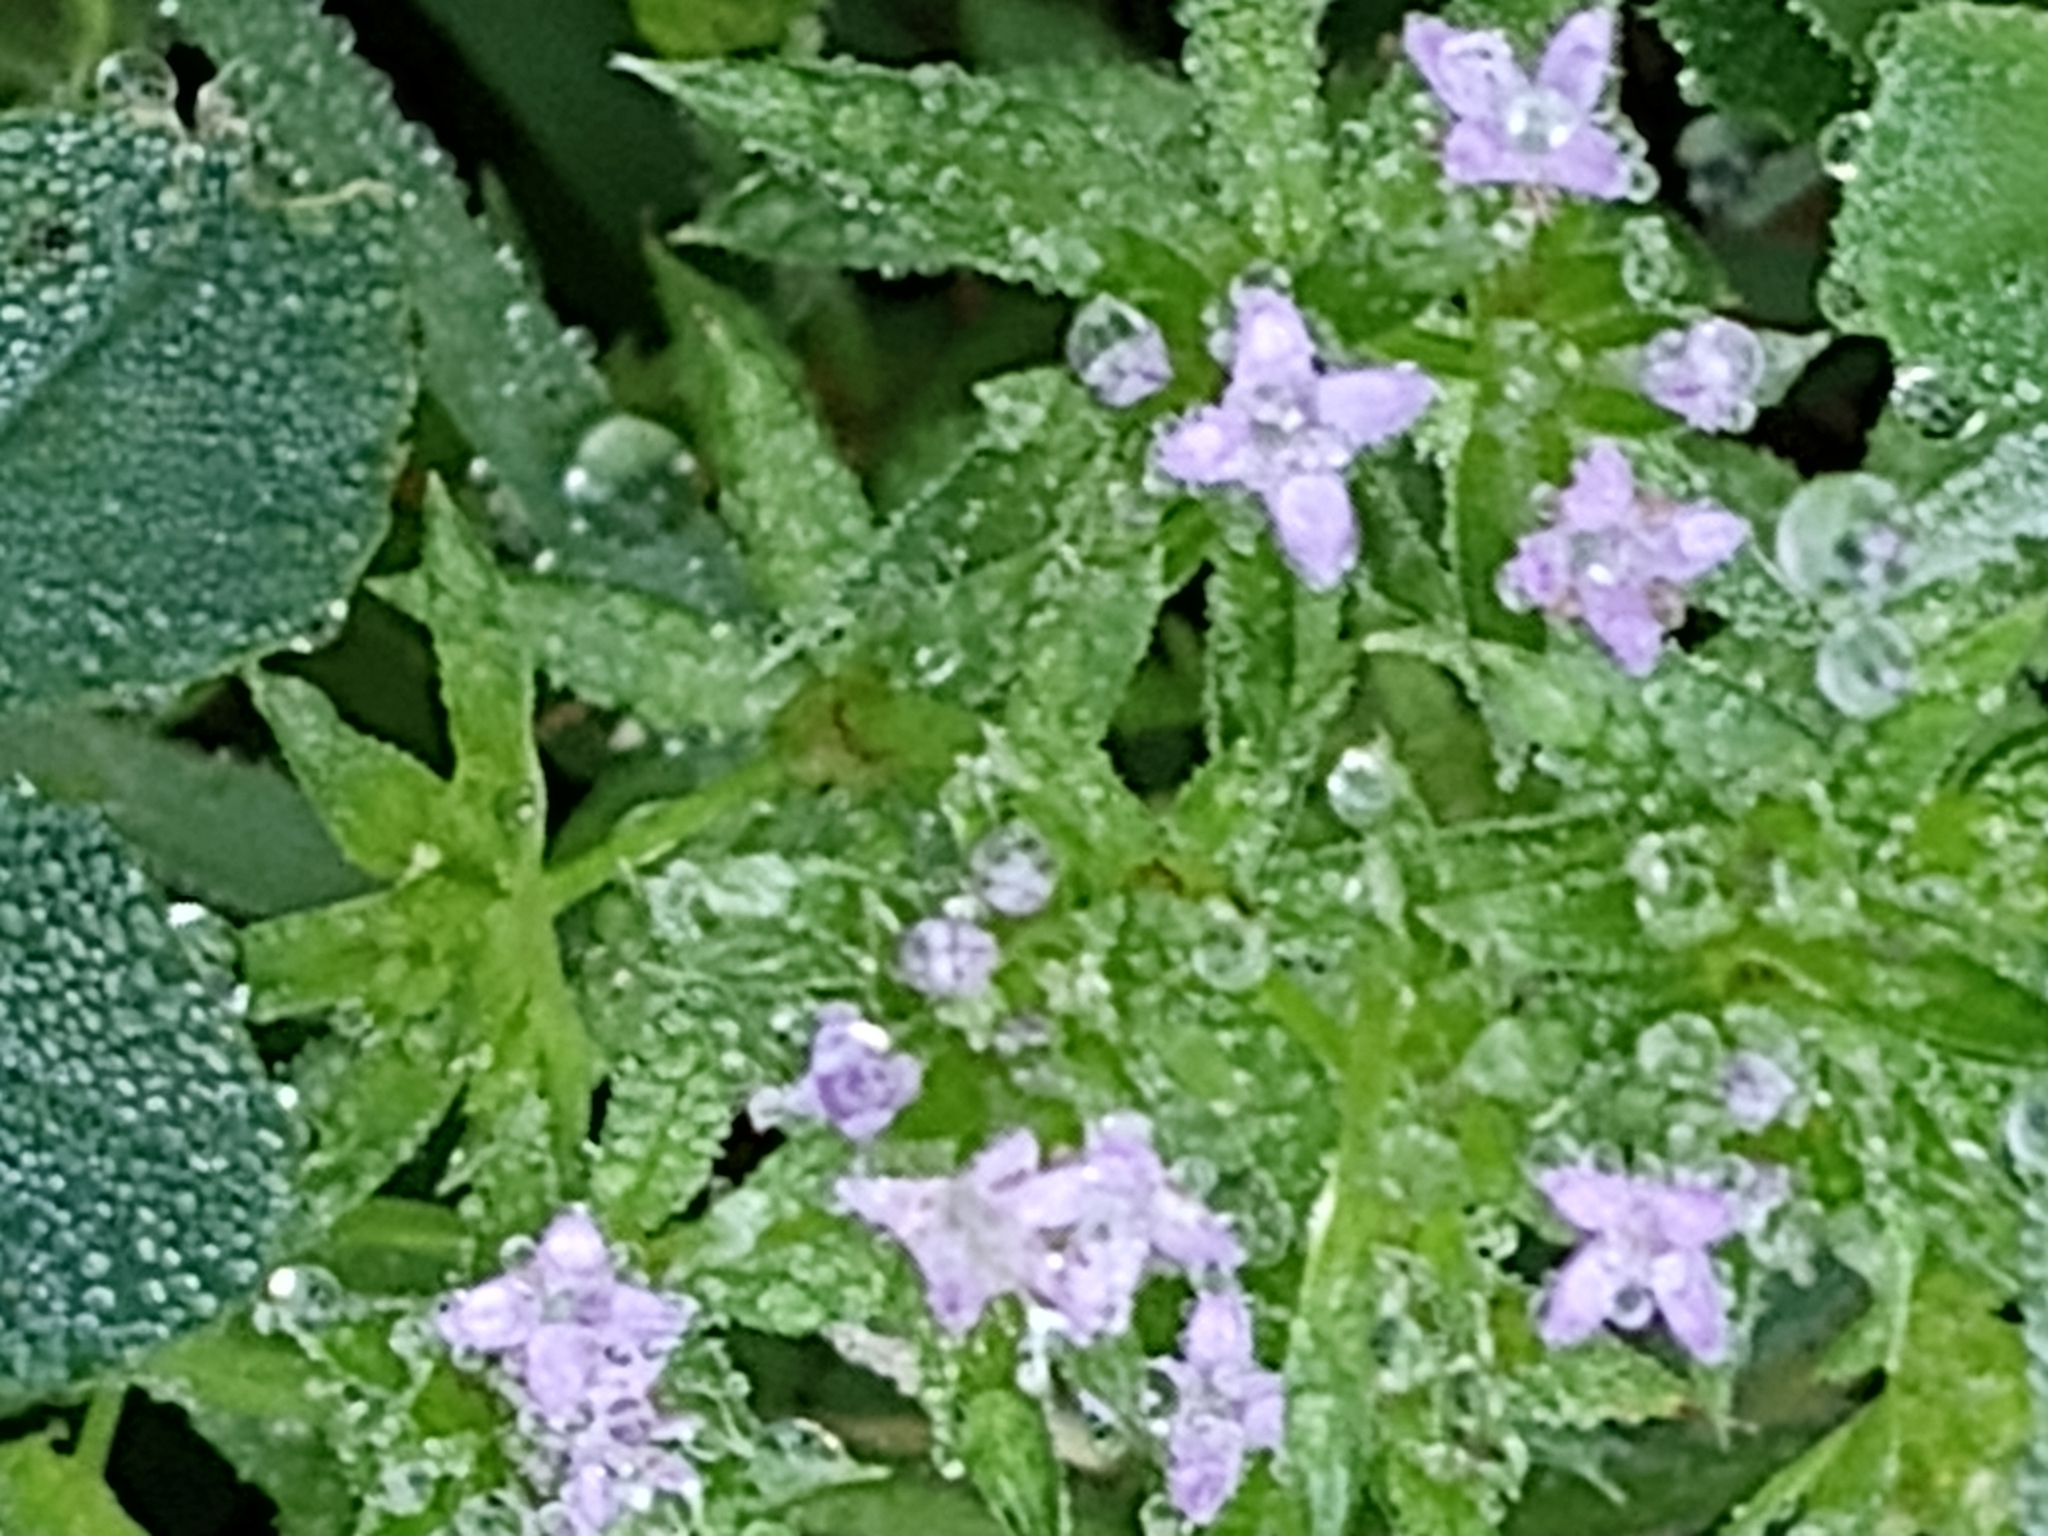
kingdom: Plantae
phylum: Tracheophyta
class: Magnoliopsida
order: Gentianales
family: Rubiaceae
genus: Sherardia
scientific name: Sherardia arvensis
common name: Field madder
